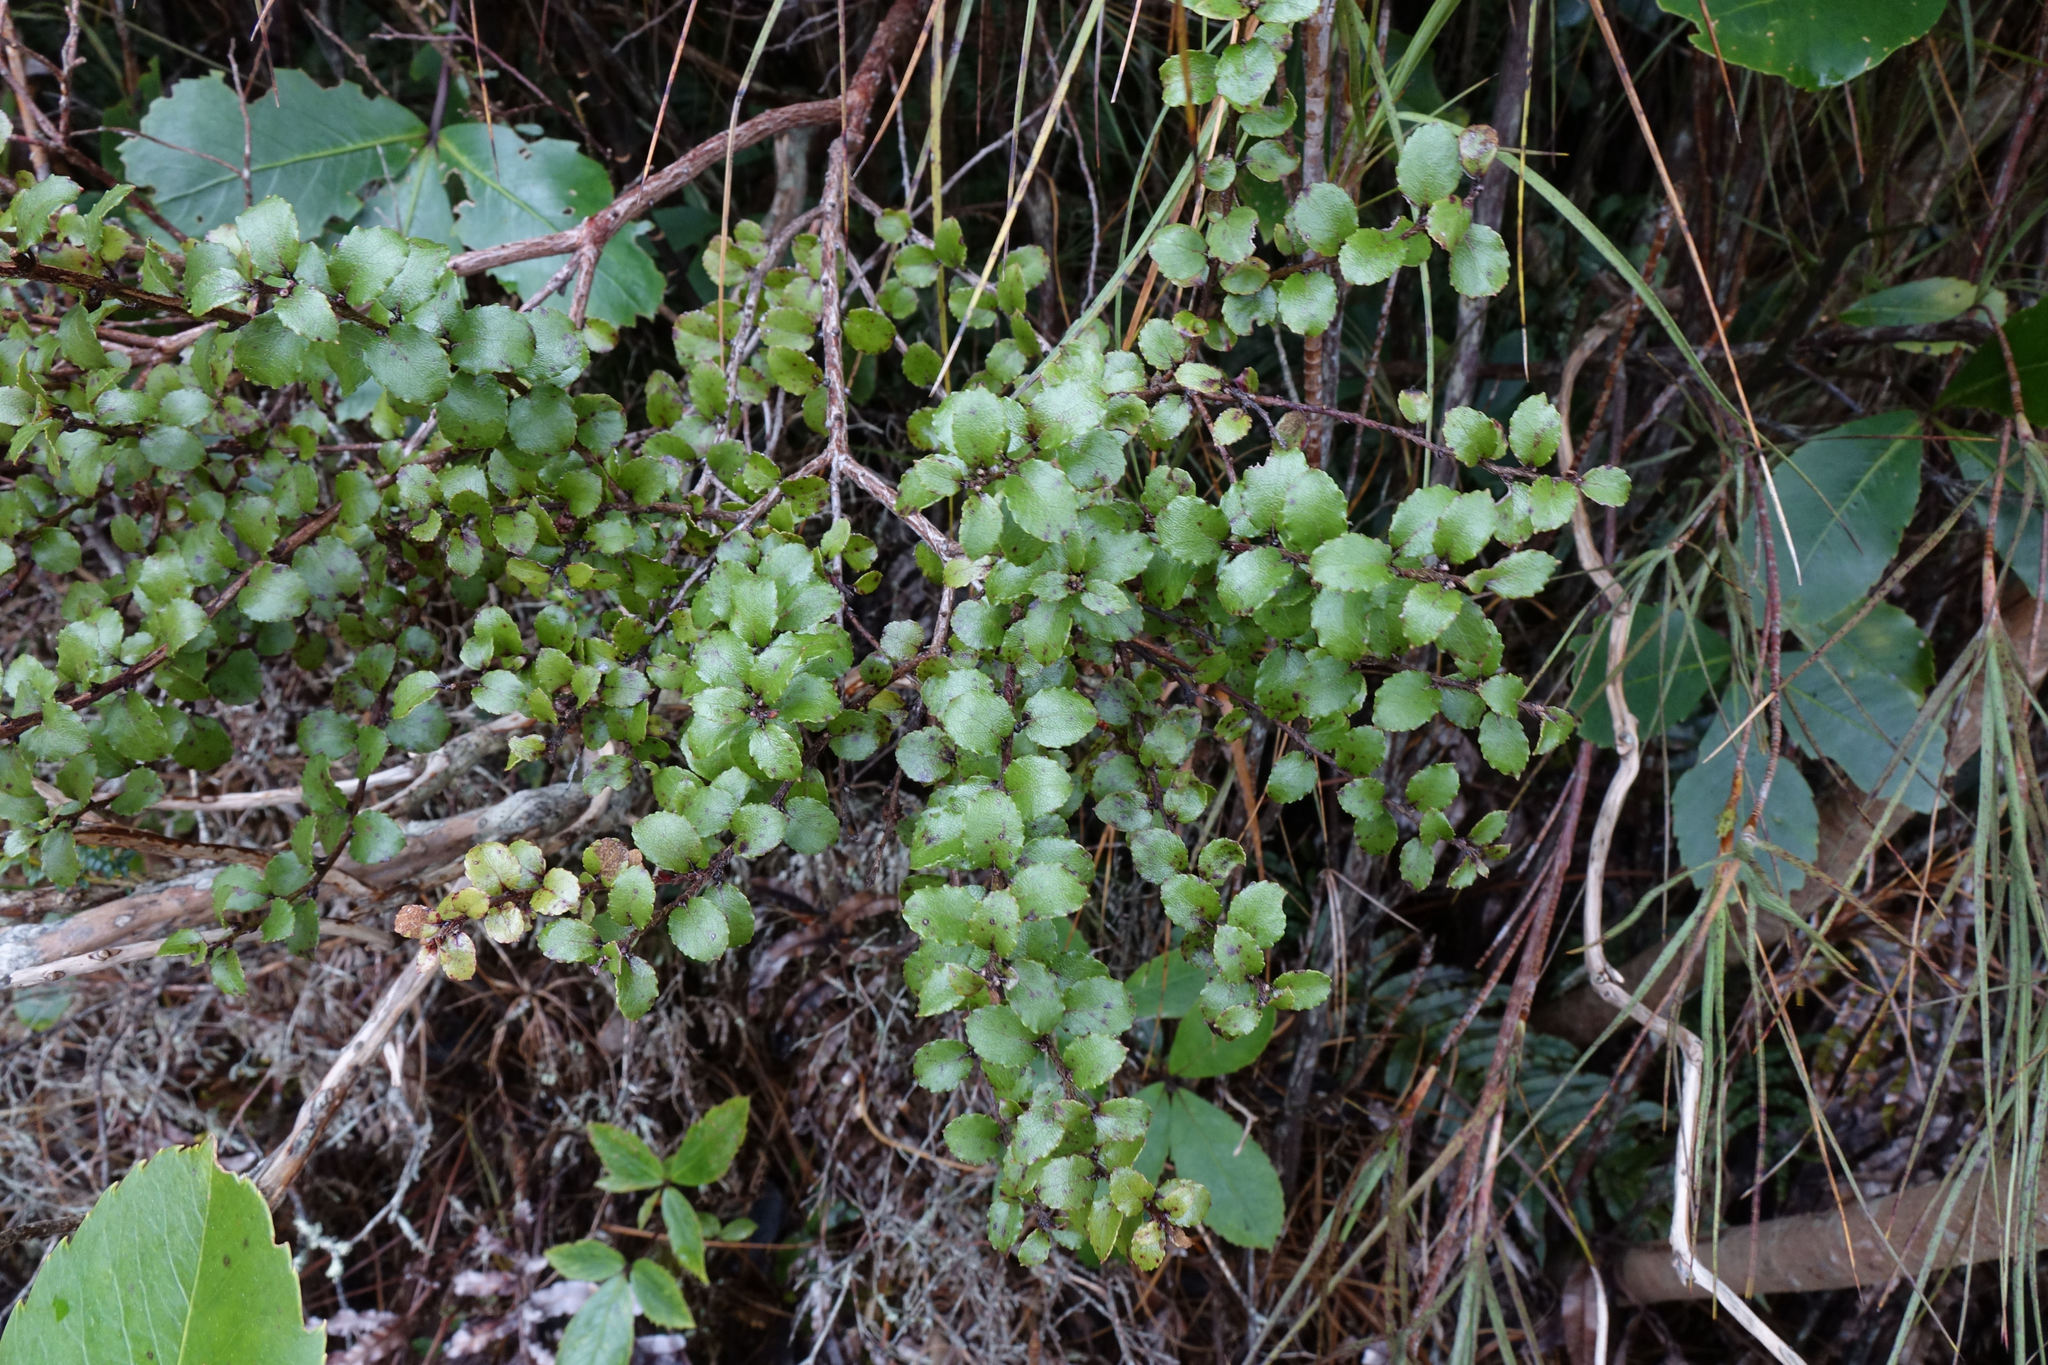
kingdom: Plantae
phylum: Tracheophyta
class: Magnoliopsida
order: Ericales
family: Ericaceae
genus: Gaultheria
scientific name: Gaultheria antipoda
